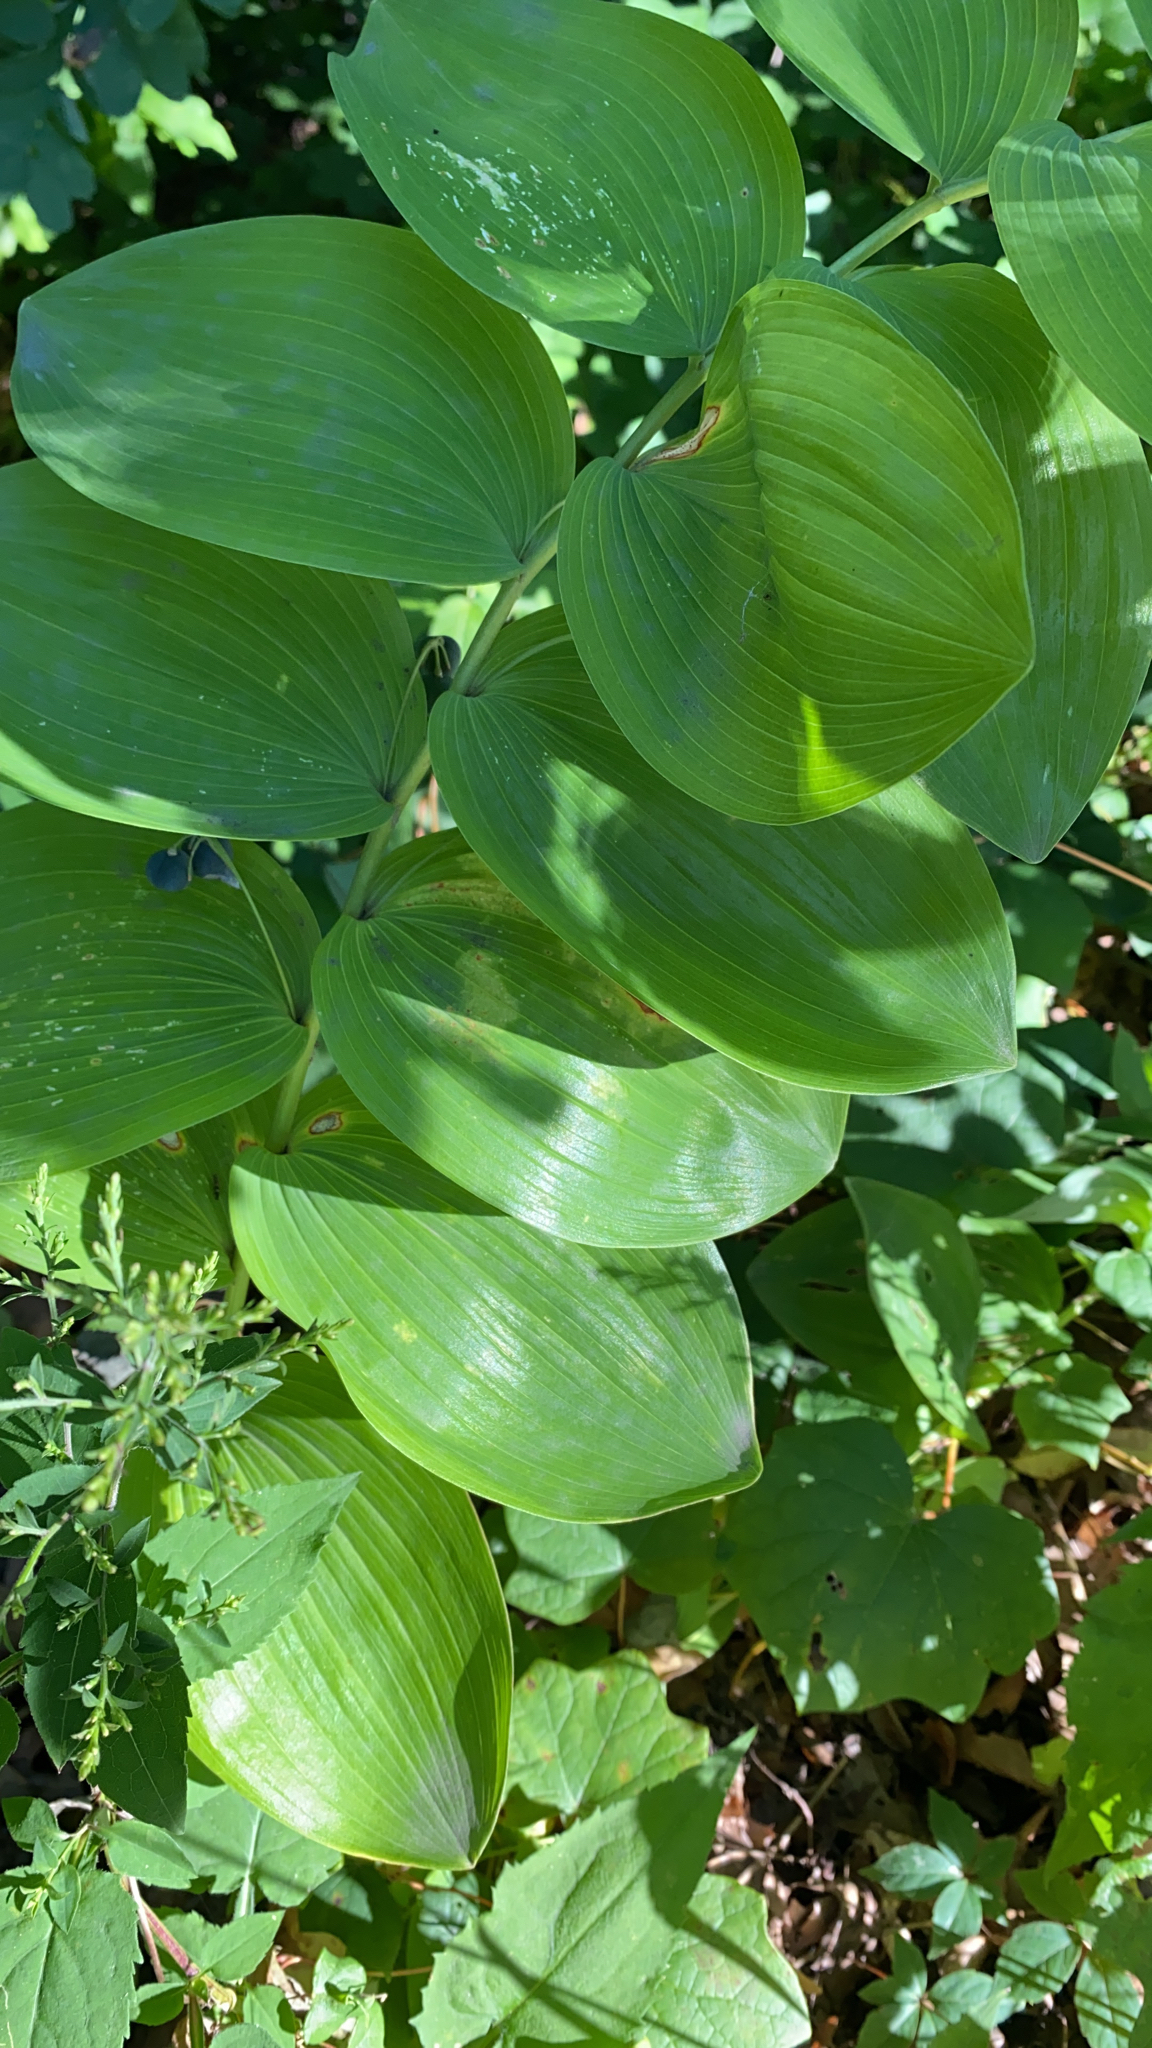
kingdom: Plantae
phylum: Tracheophyta
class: Liliopsida
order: Asparagales
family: Asparagaceae
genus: Polygonatum
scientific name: Polygonatum biflorum
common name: American solomon's-seal
